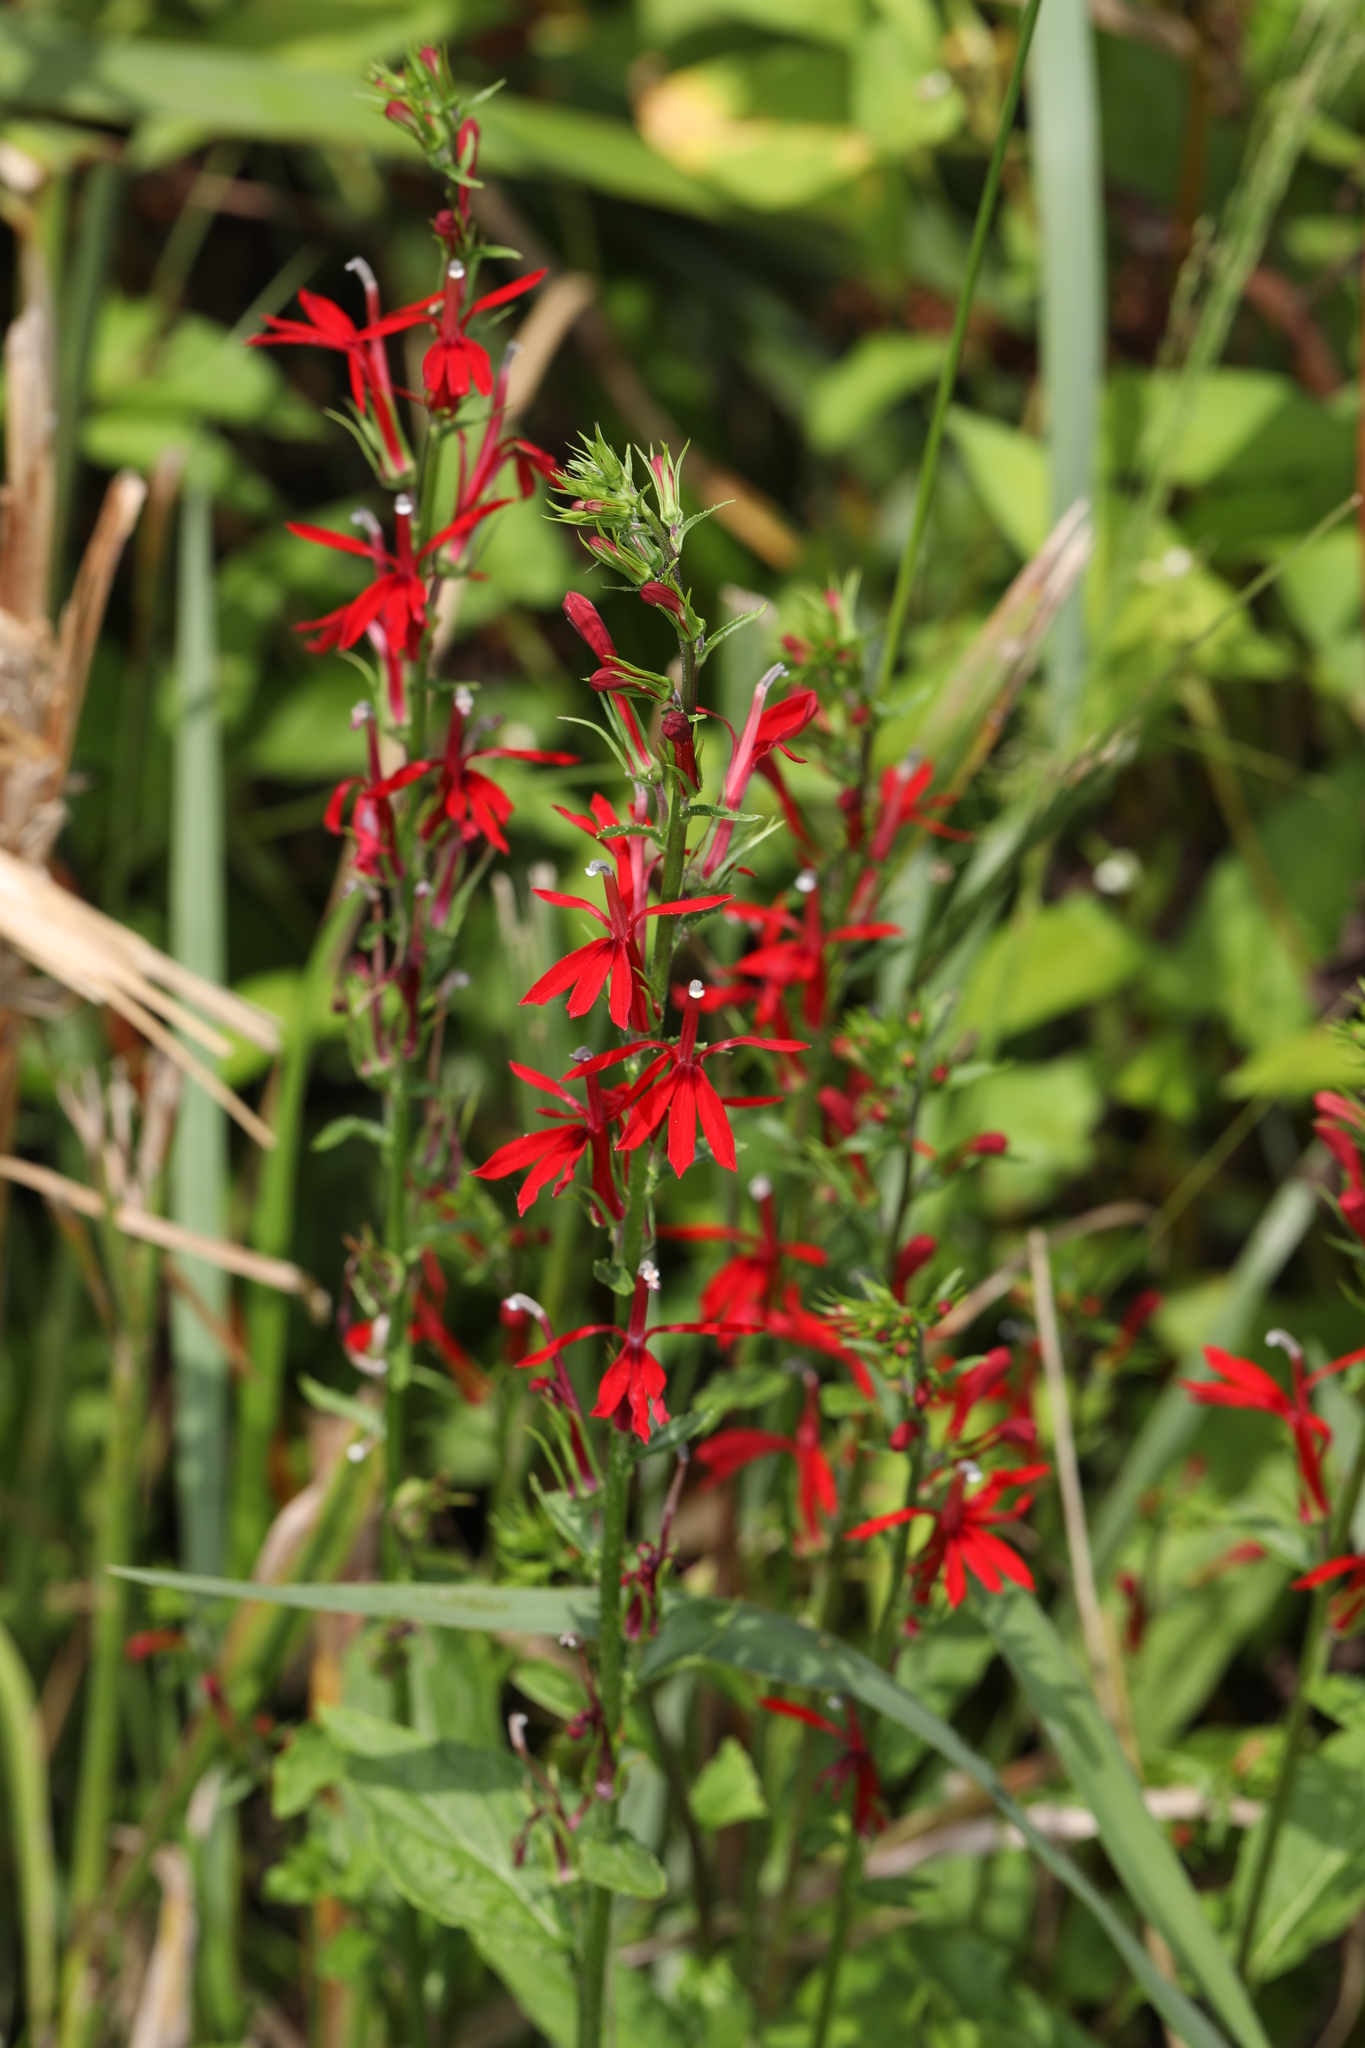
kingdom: Plantae
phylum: Tracheophyta
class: Magnoliopsida
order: Asterales
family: Campanulaceae
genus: Lobelia
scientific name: Lobelia cardinalis
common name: Cardinal flower
